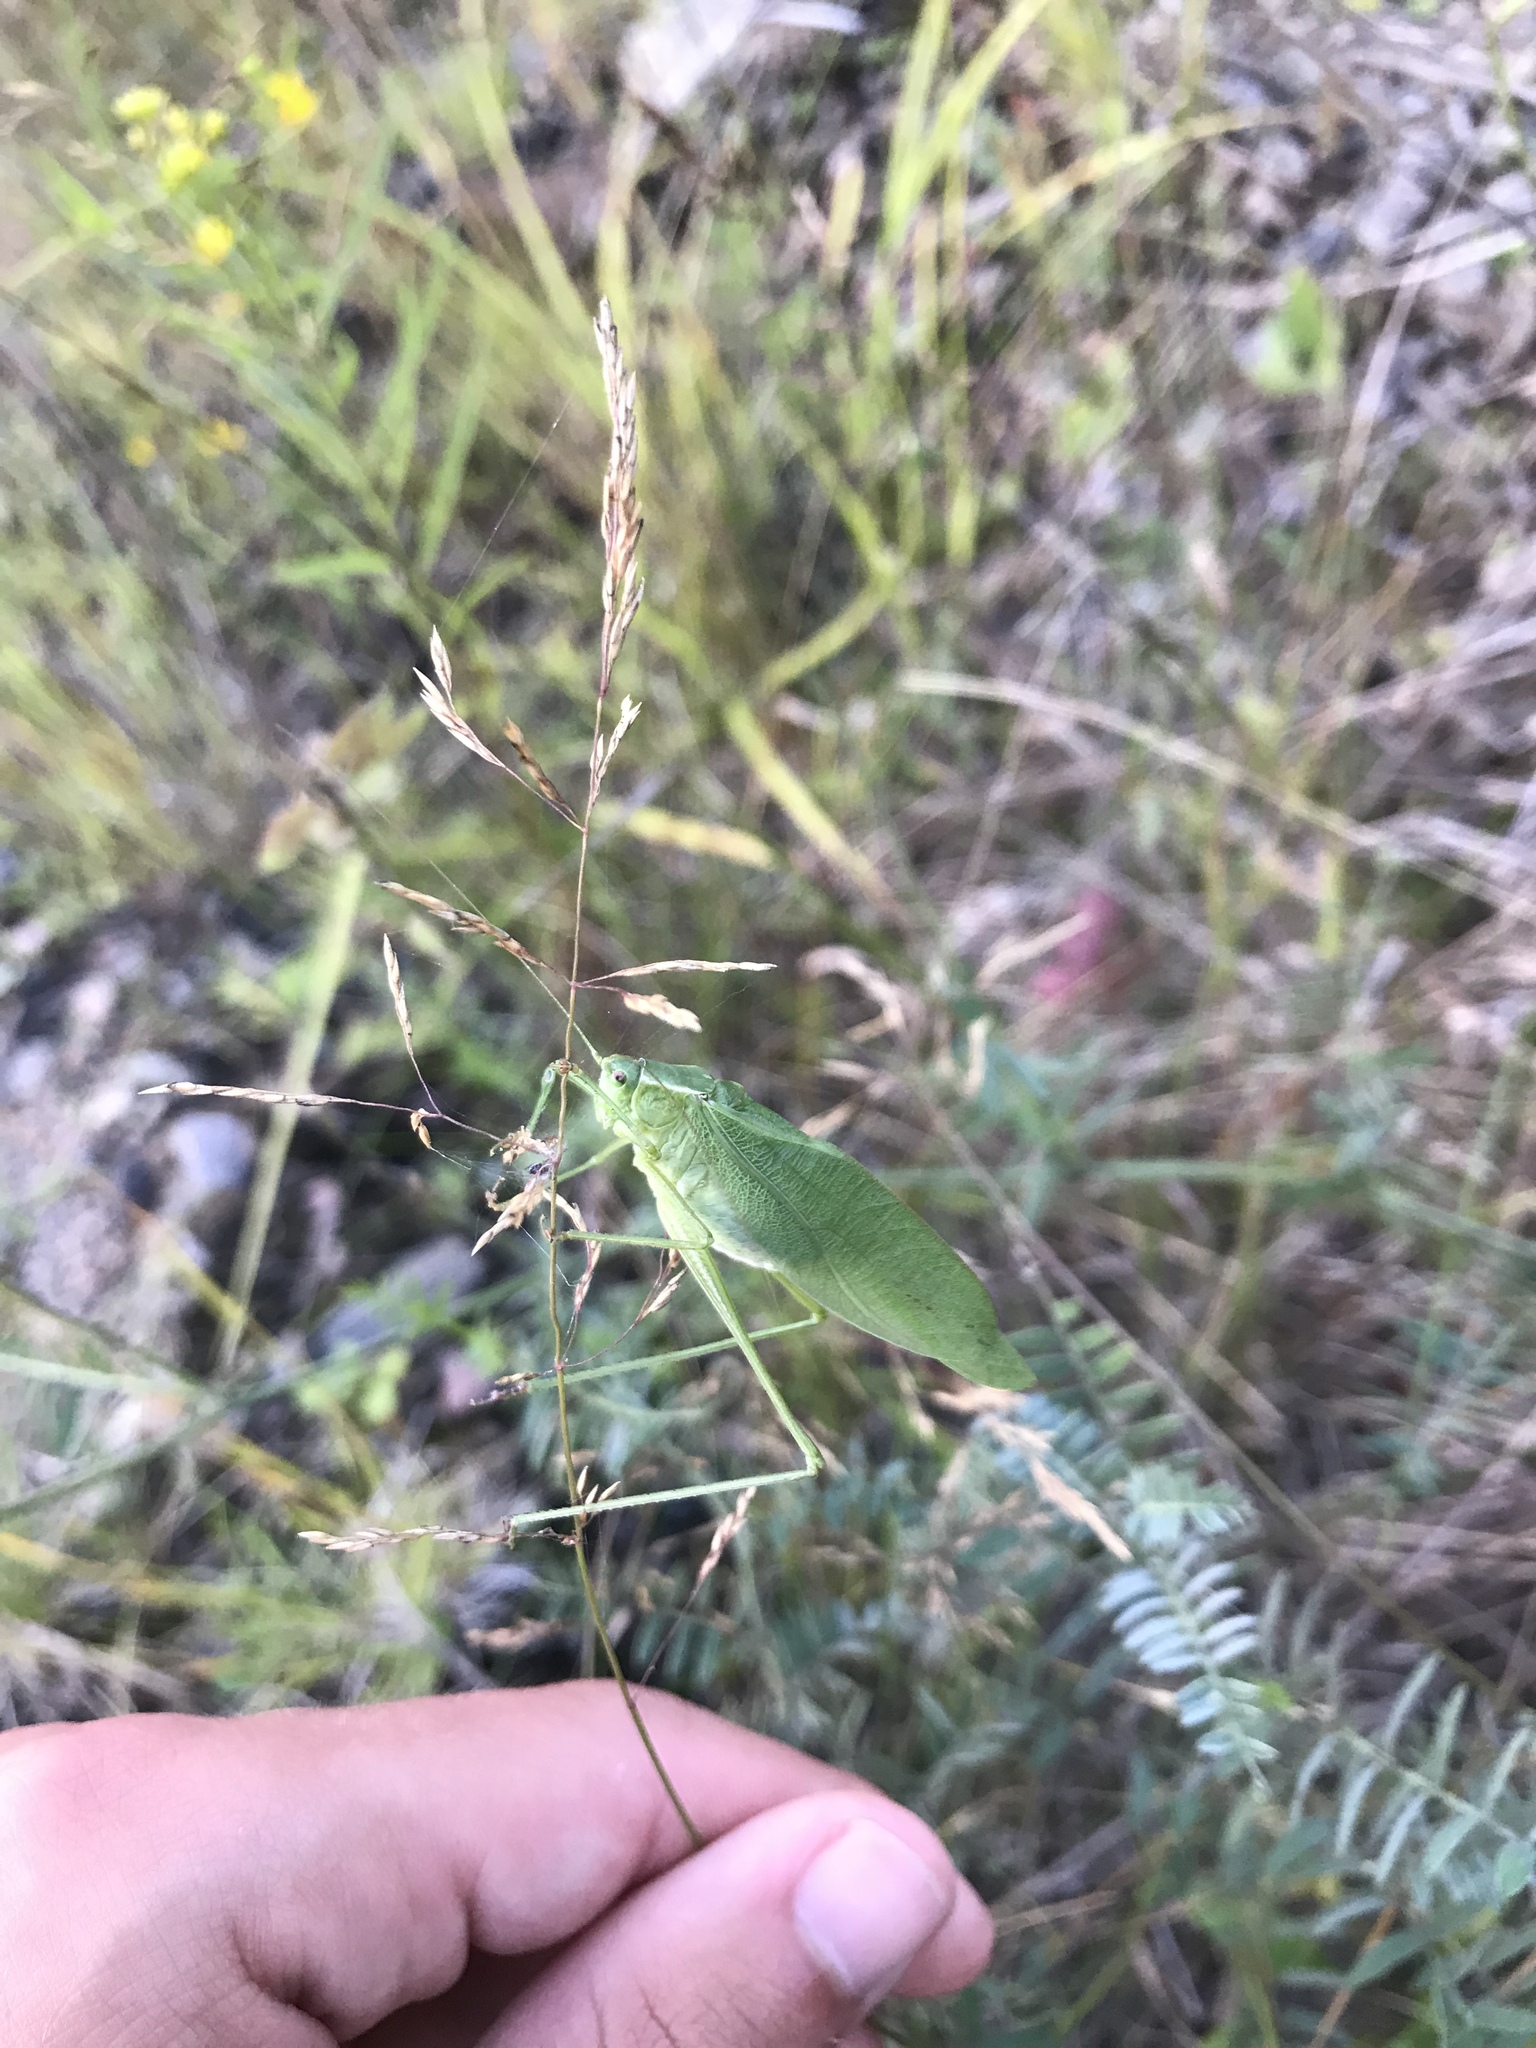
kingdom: Animalia
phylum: Arthropoda
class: Insecta
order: Orthoptera
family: Tettigoniidae
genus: Scudderia
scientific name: Scudderia pistillata
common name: Broad-winged bush-katydid
